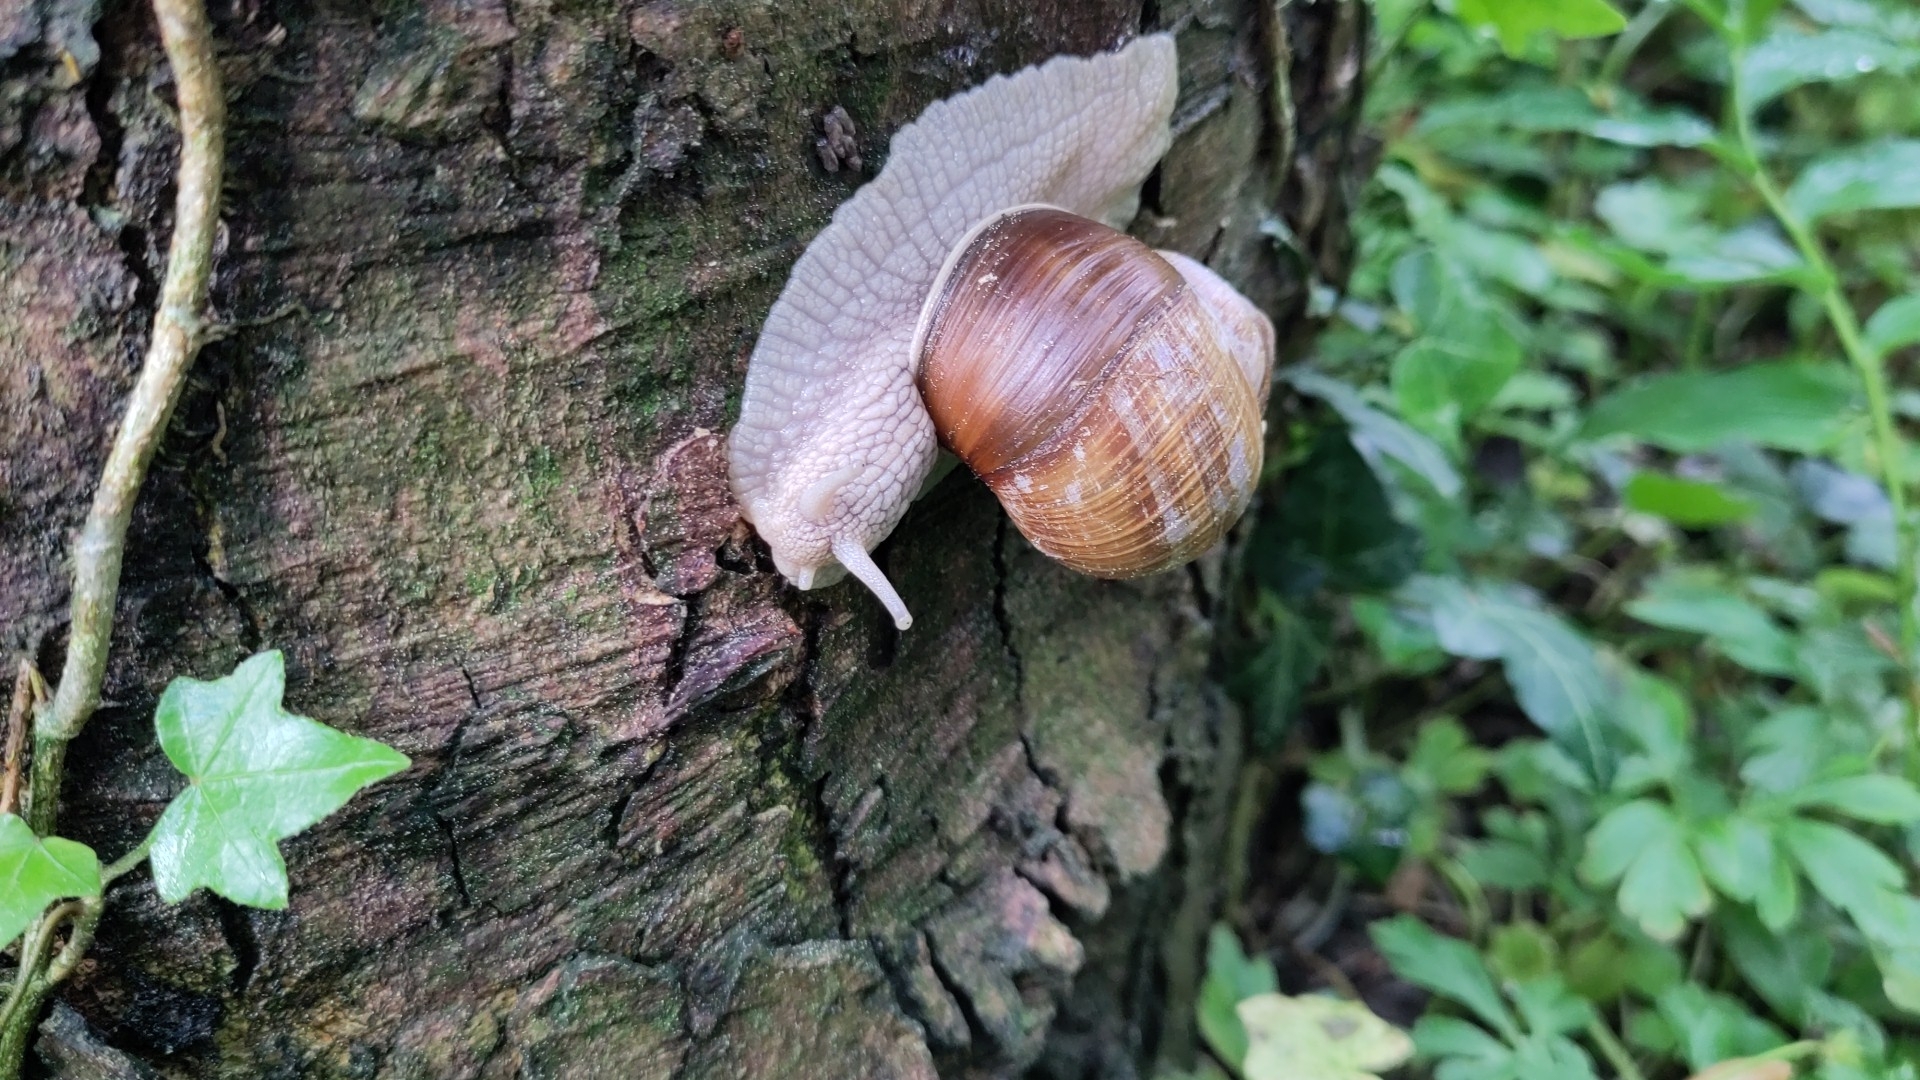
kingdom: Animalia
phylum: Mollusca
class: Gastropoda
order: Stylommatophora
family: Helicidae
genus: Helix
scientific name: Helix pomatia
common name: Roman snail
